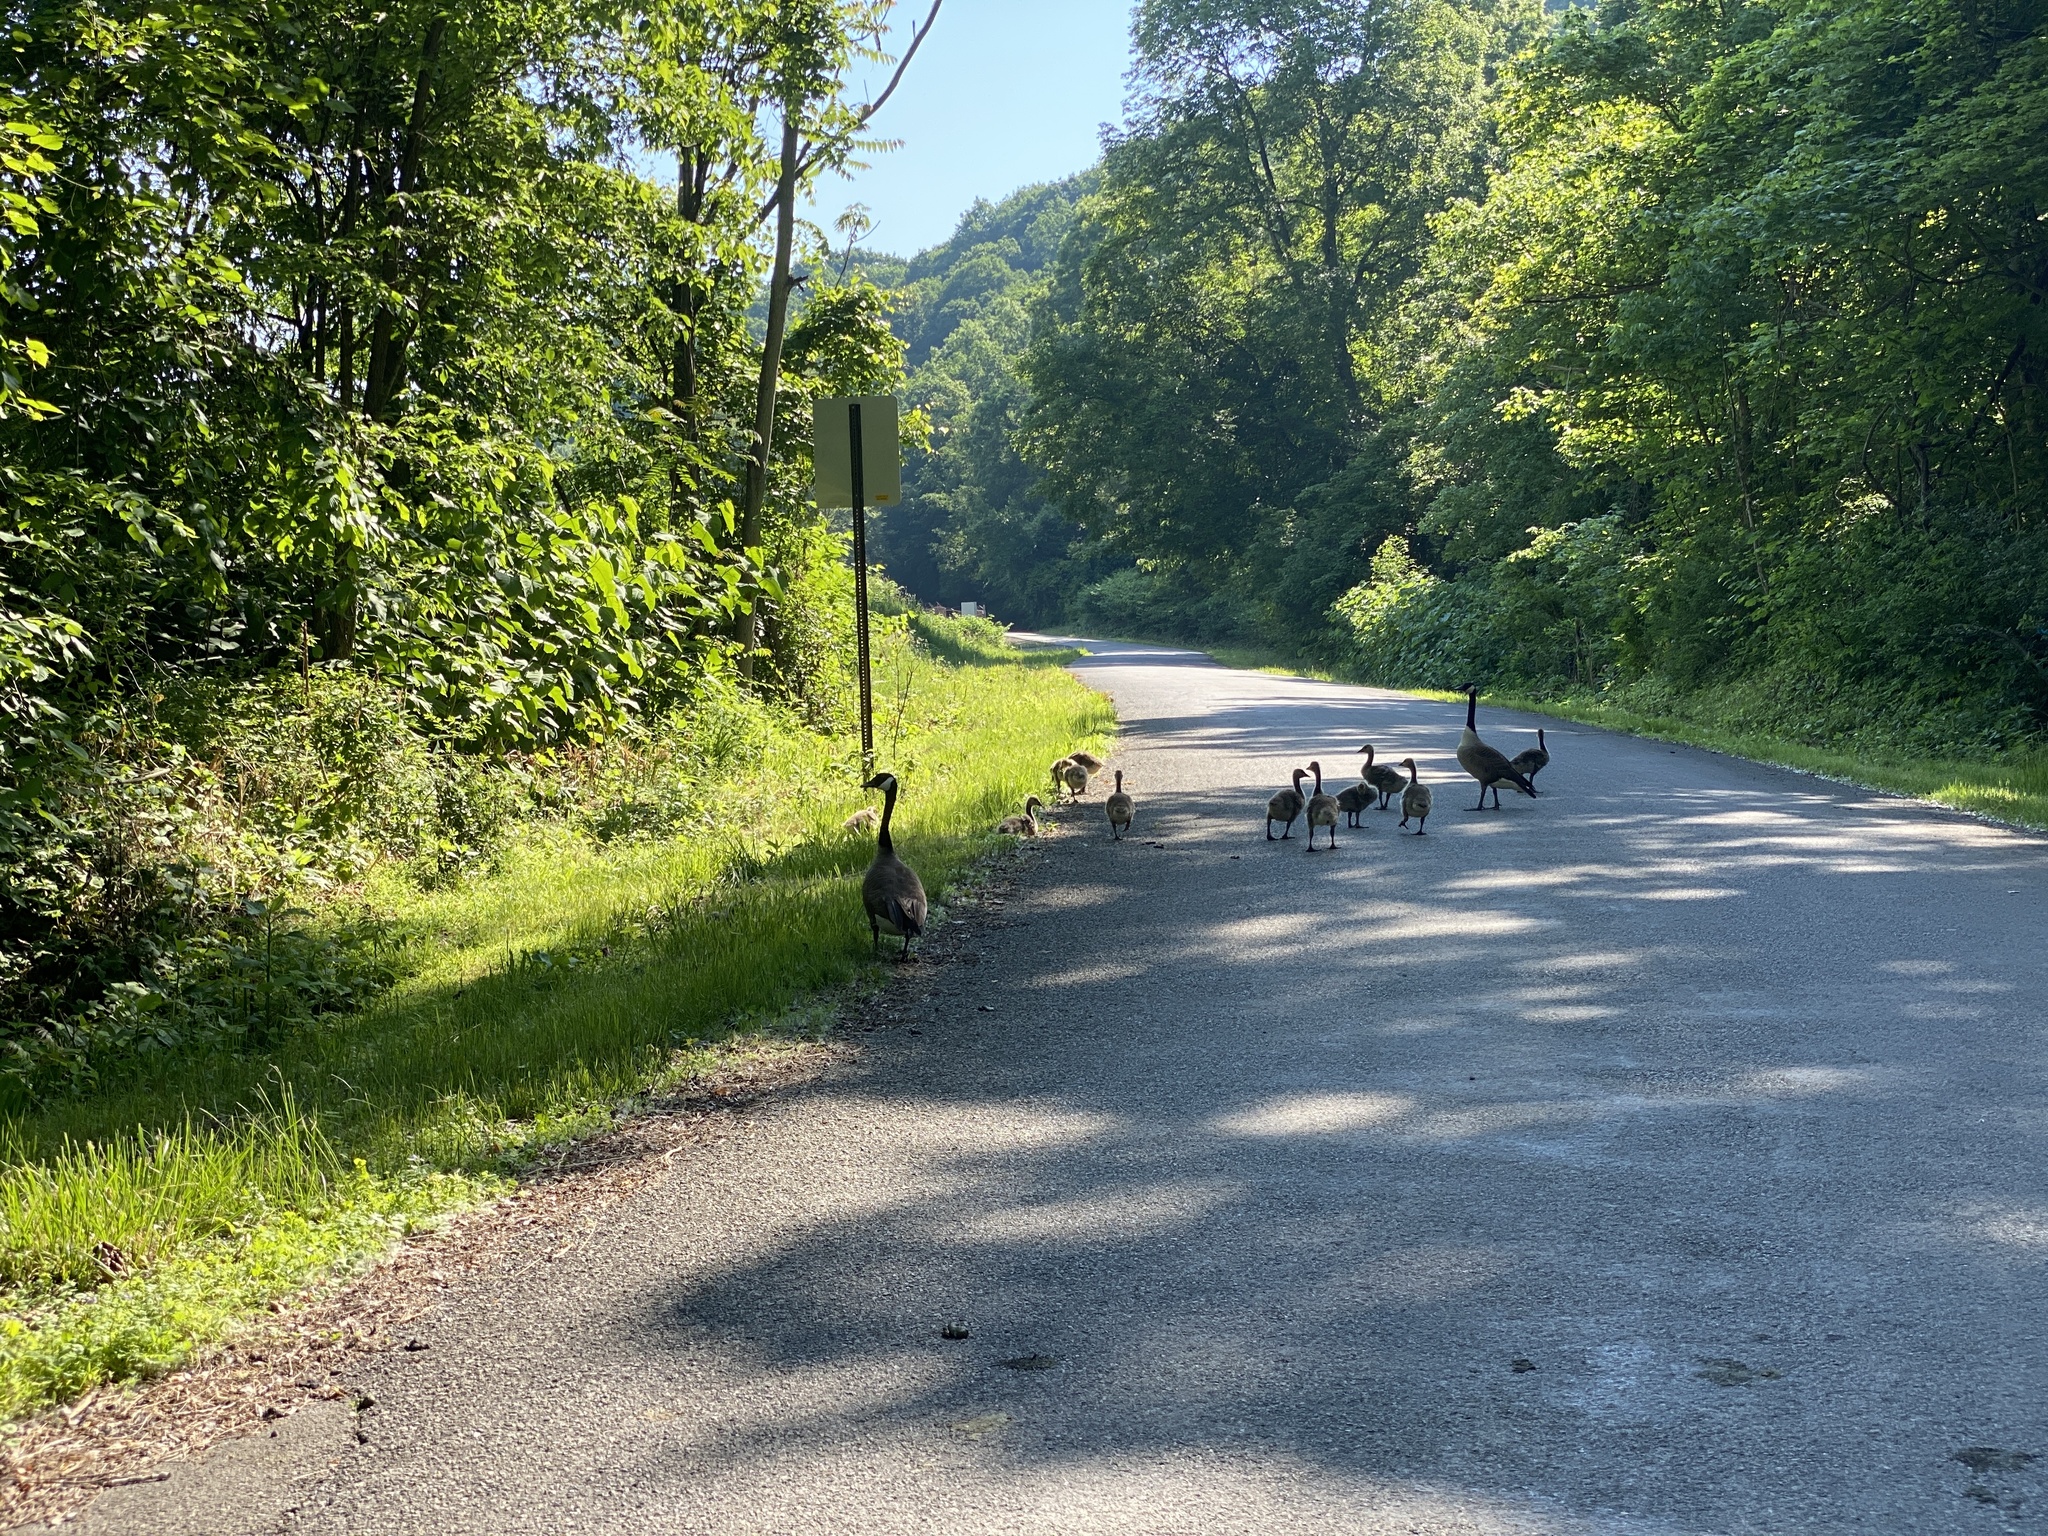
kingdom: Animalia
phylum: Chordata
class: Aves
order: Anseriformes
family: Anatidae
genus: Branta
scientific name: Branta canadensis
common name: Canada goose
